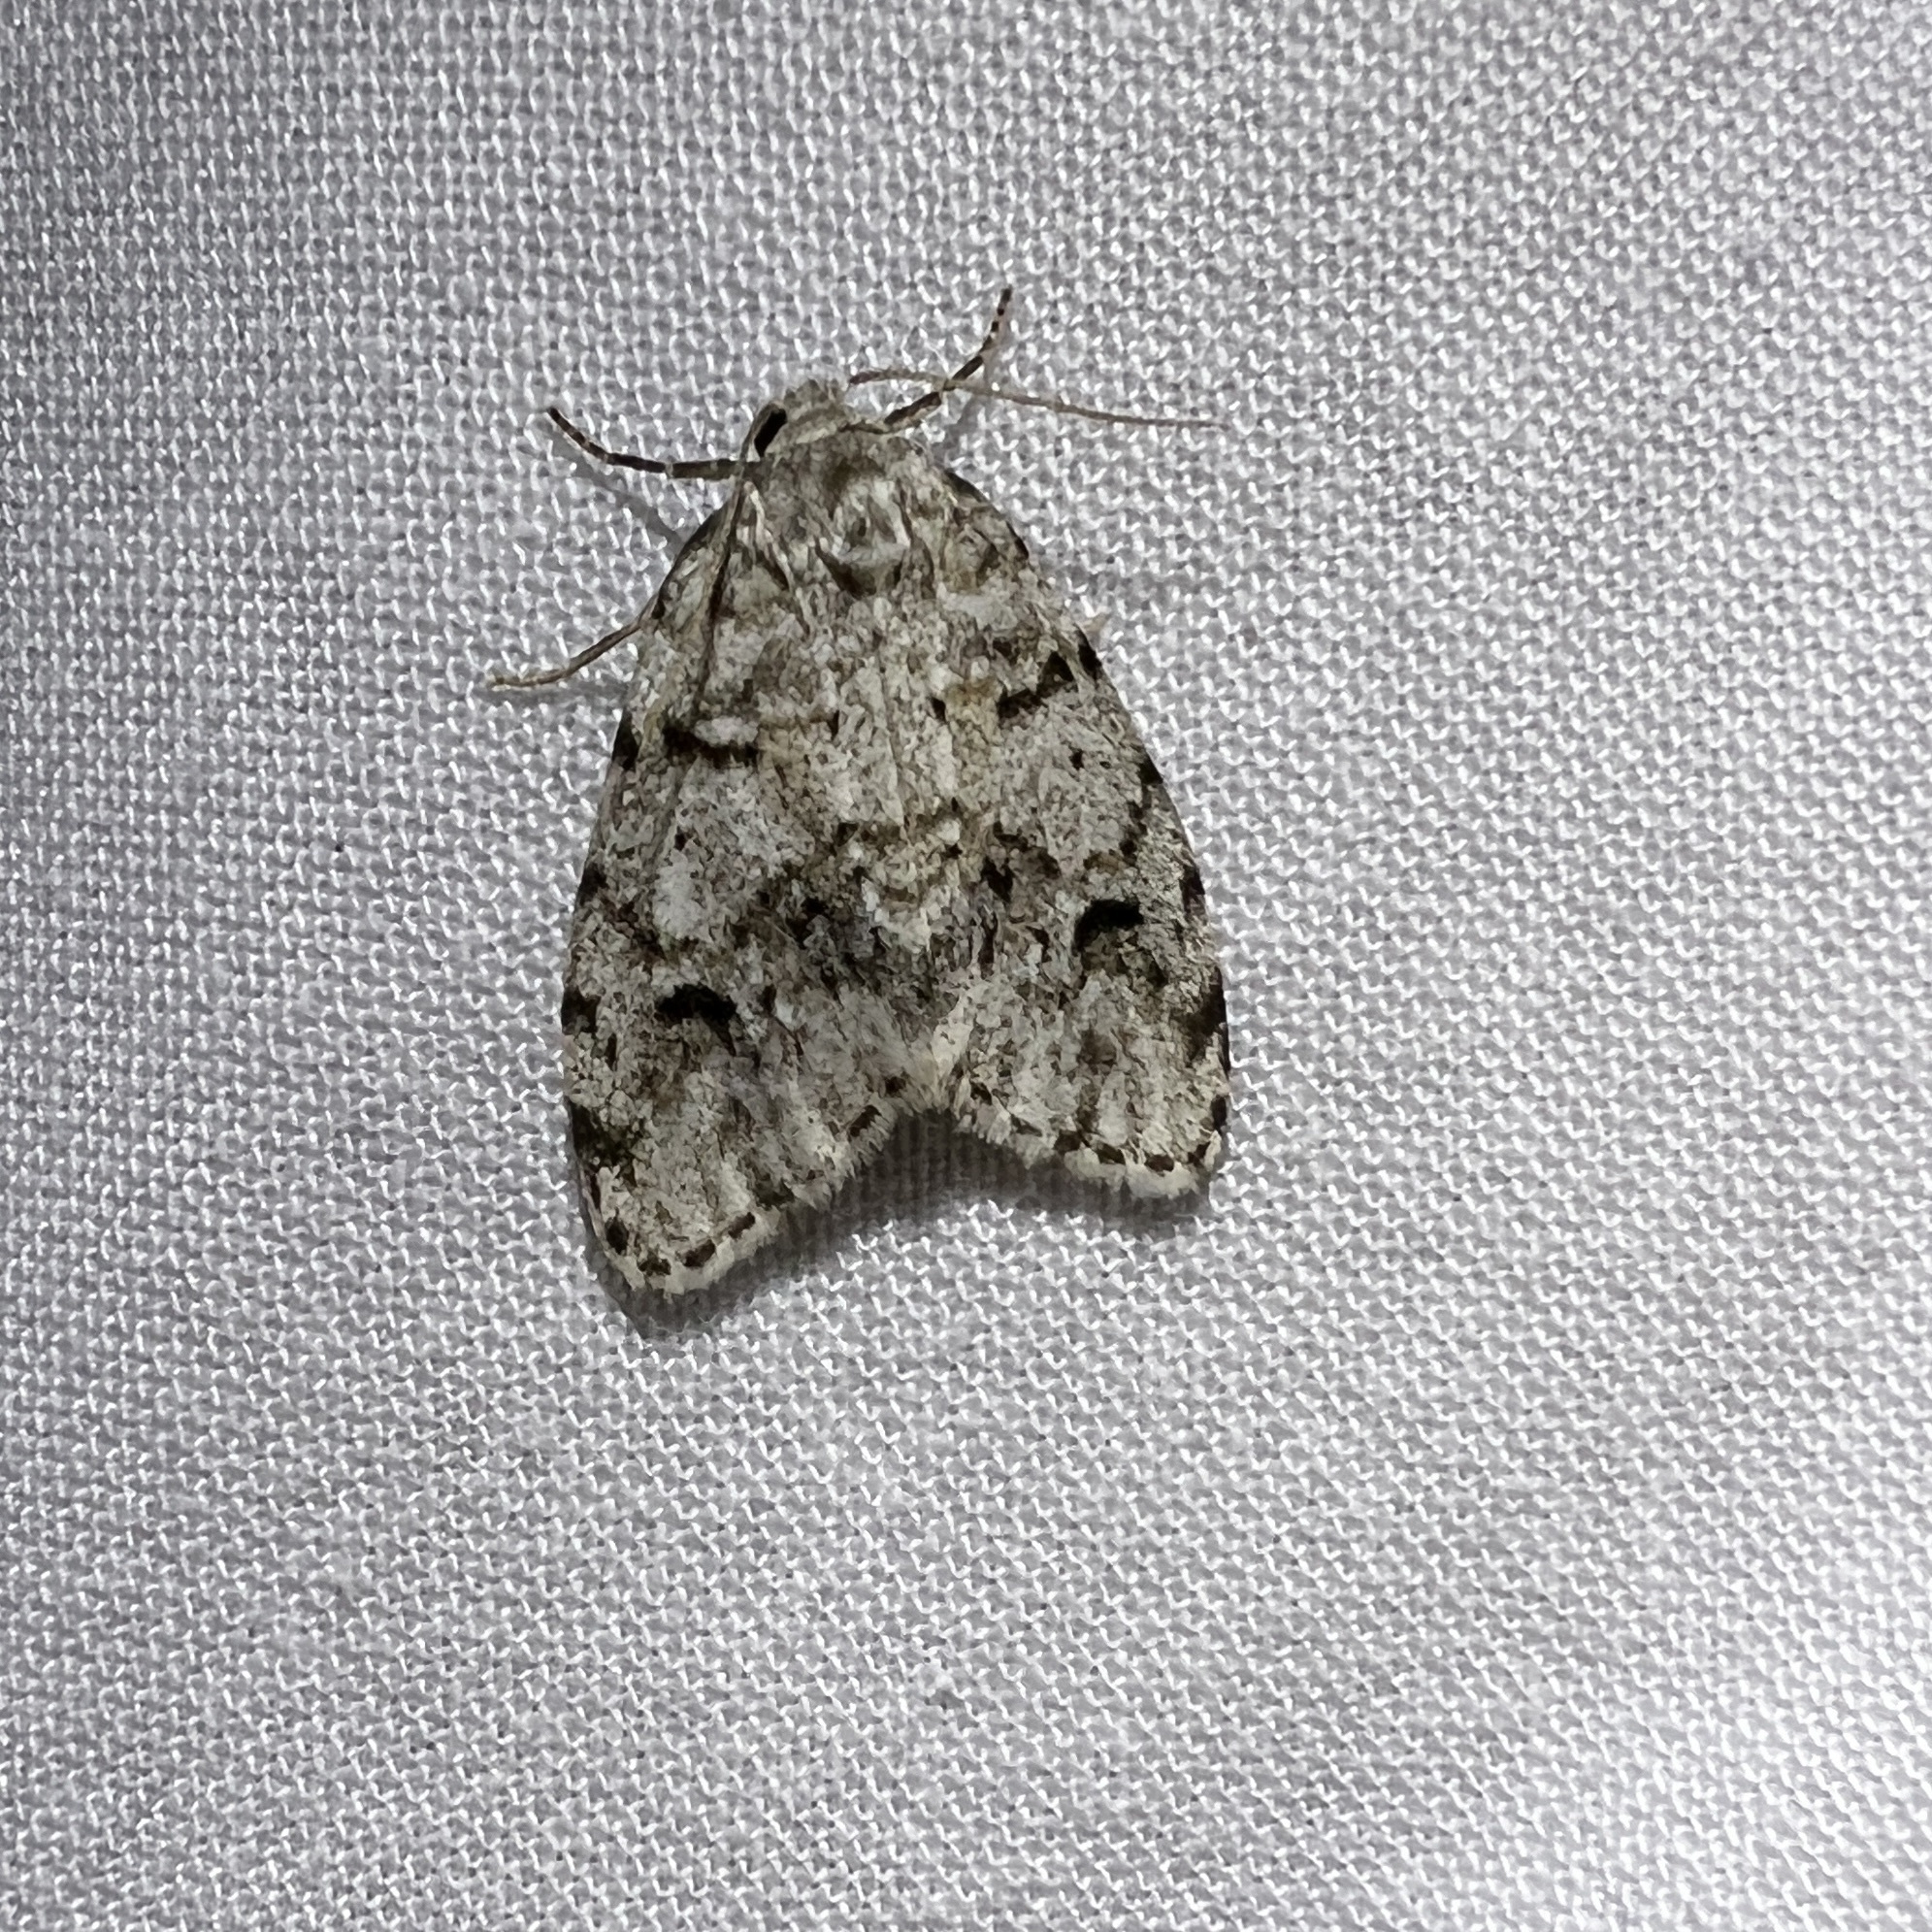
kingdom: Animalia
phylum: Arthropoda
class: Insecta
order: Lepidoptera
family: Erebidae
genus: Clemensia
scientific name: Clemensia albata
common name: Little white lichen moth
